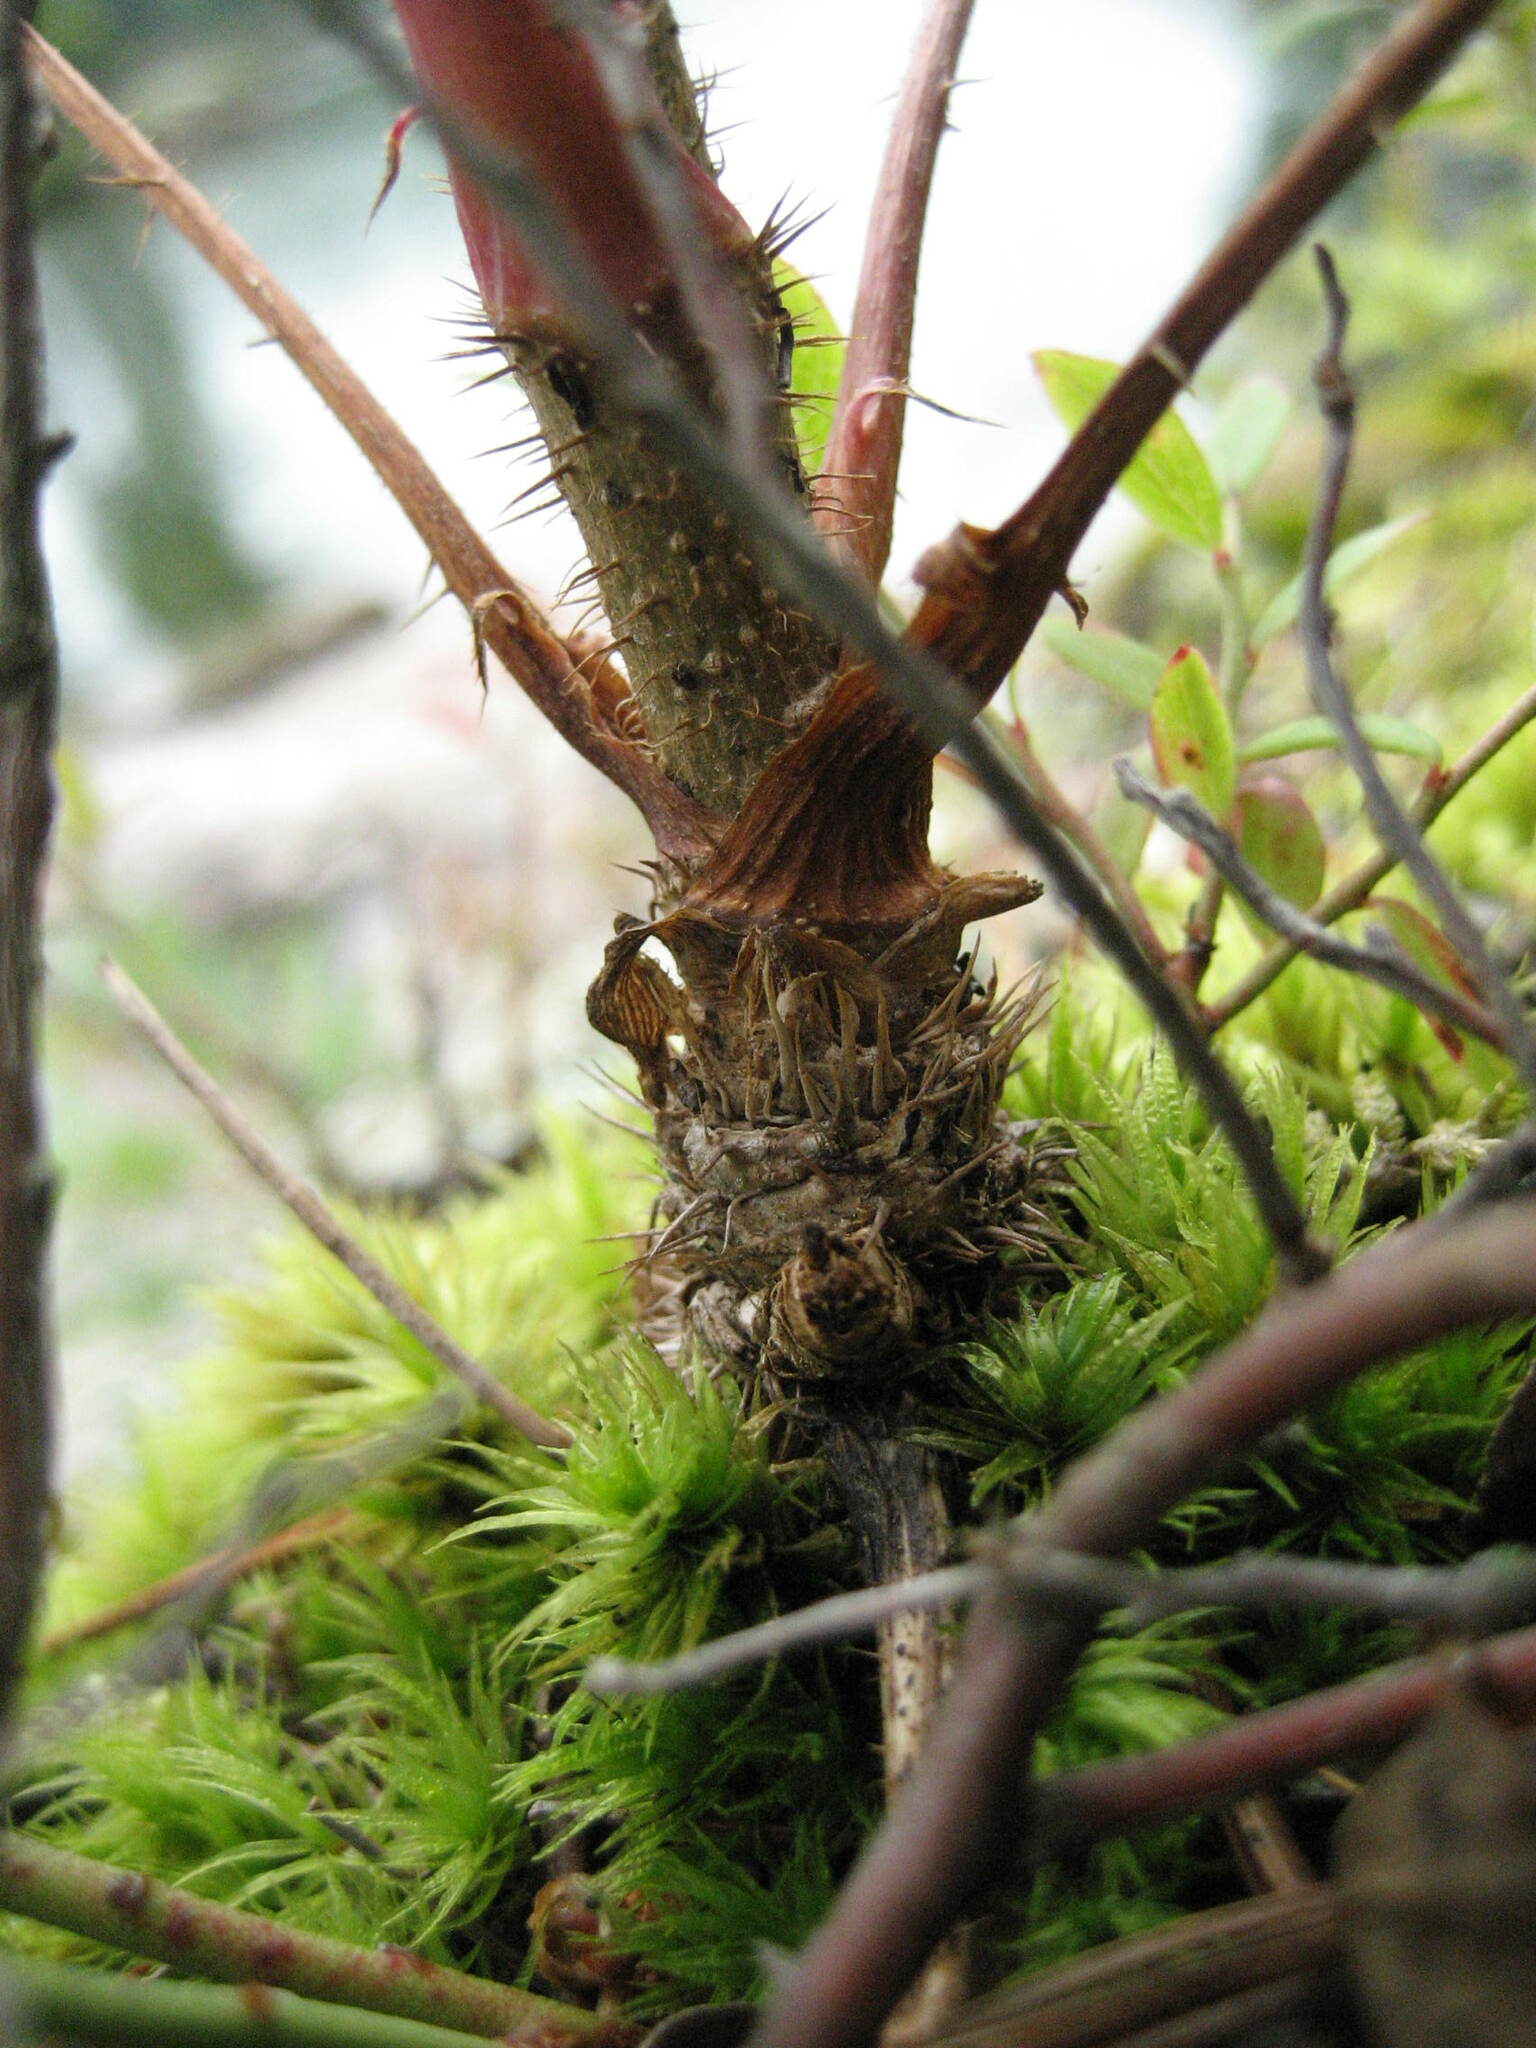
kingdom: Plantae
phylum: Tracheophyta
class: Magnoliopsida
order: Apiales
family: Araliaceae
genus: Aralia
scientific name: Aralia hispida
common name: Bristly sarsaparilla
